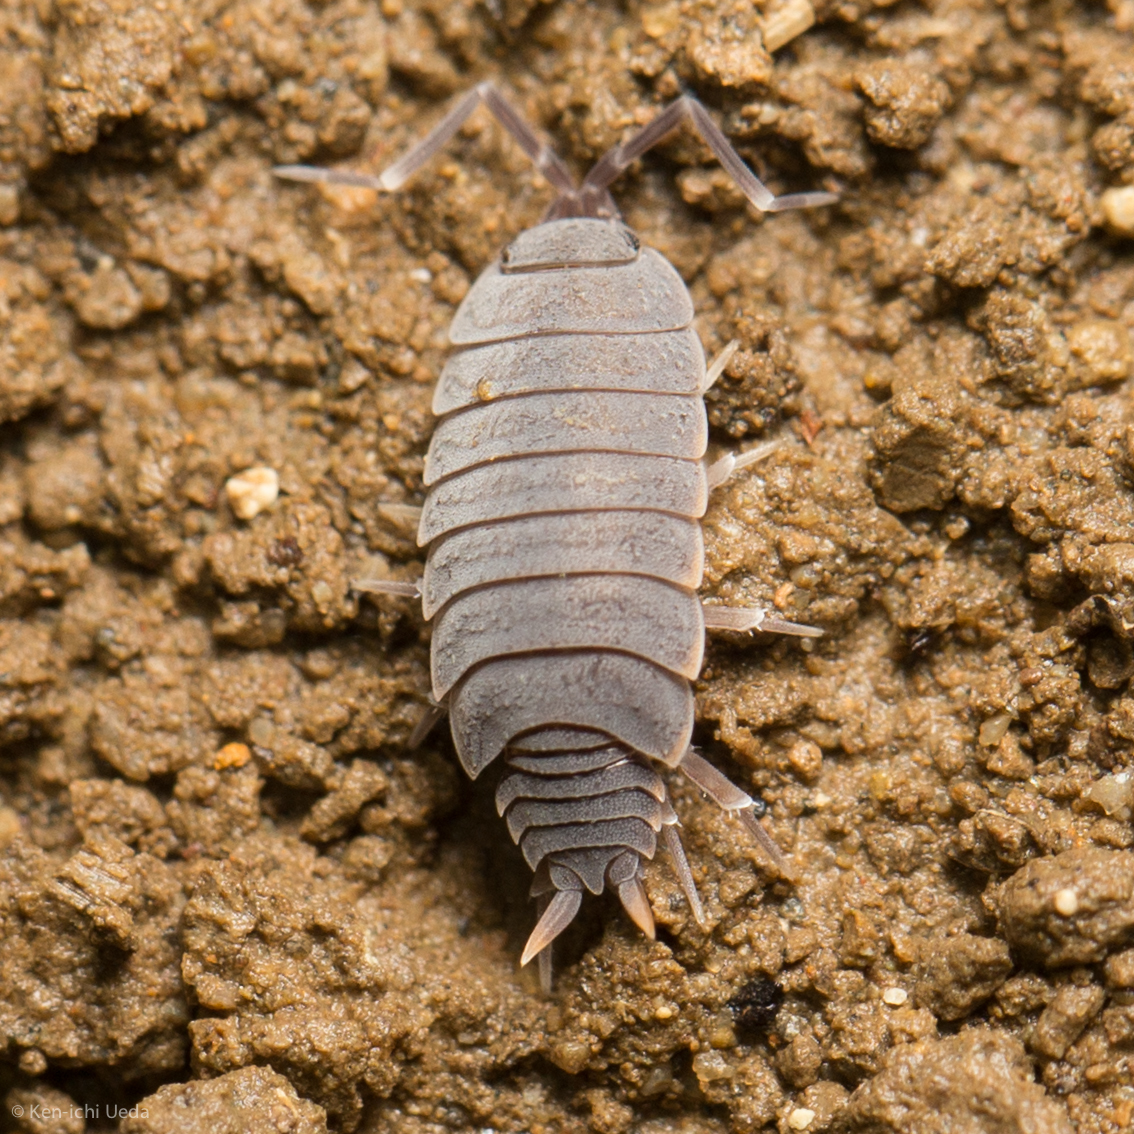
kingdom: Animalia
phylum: Arthropoda
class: Malacostraca
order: Isopoda
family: Porcellionidae
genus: Porcellionides
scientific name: Porcellionides
